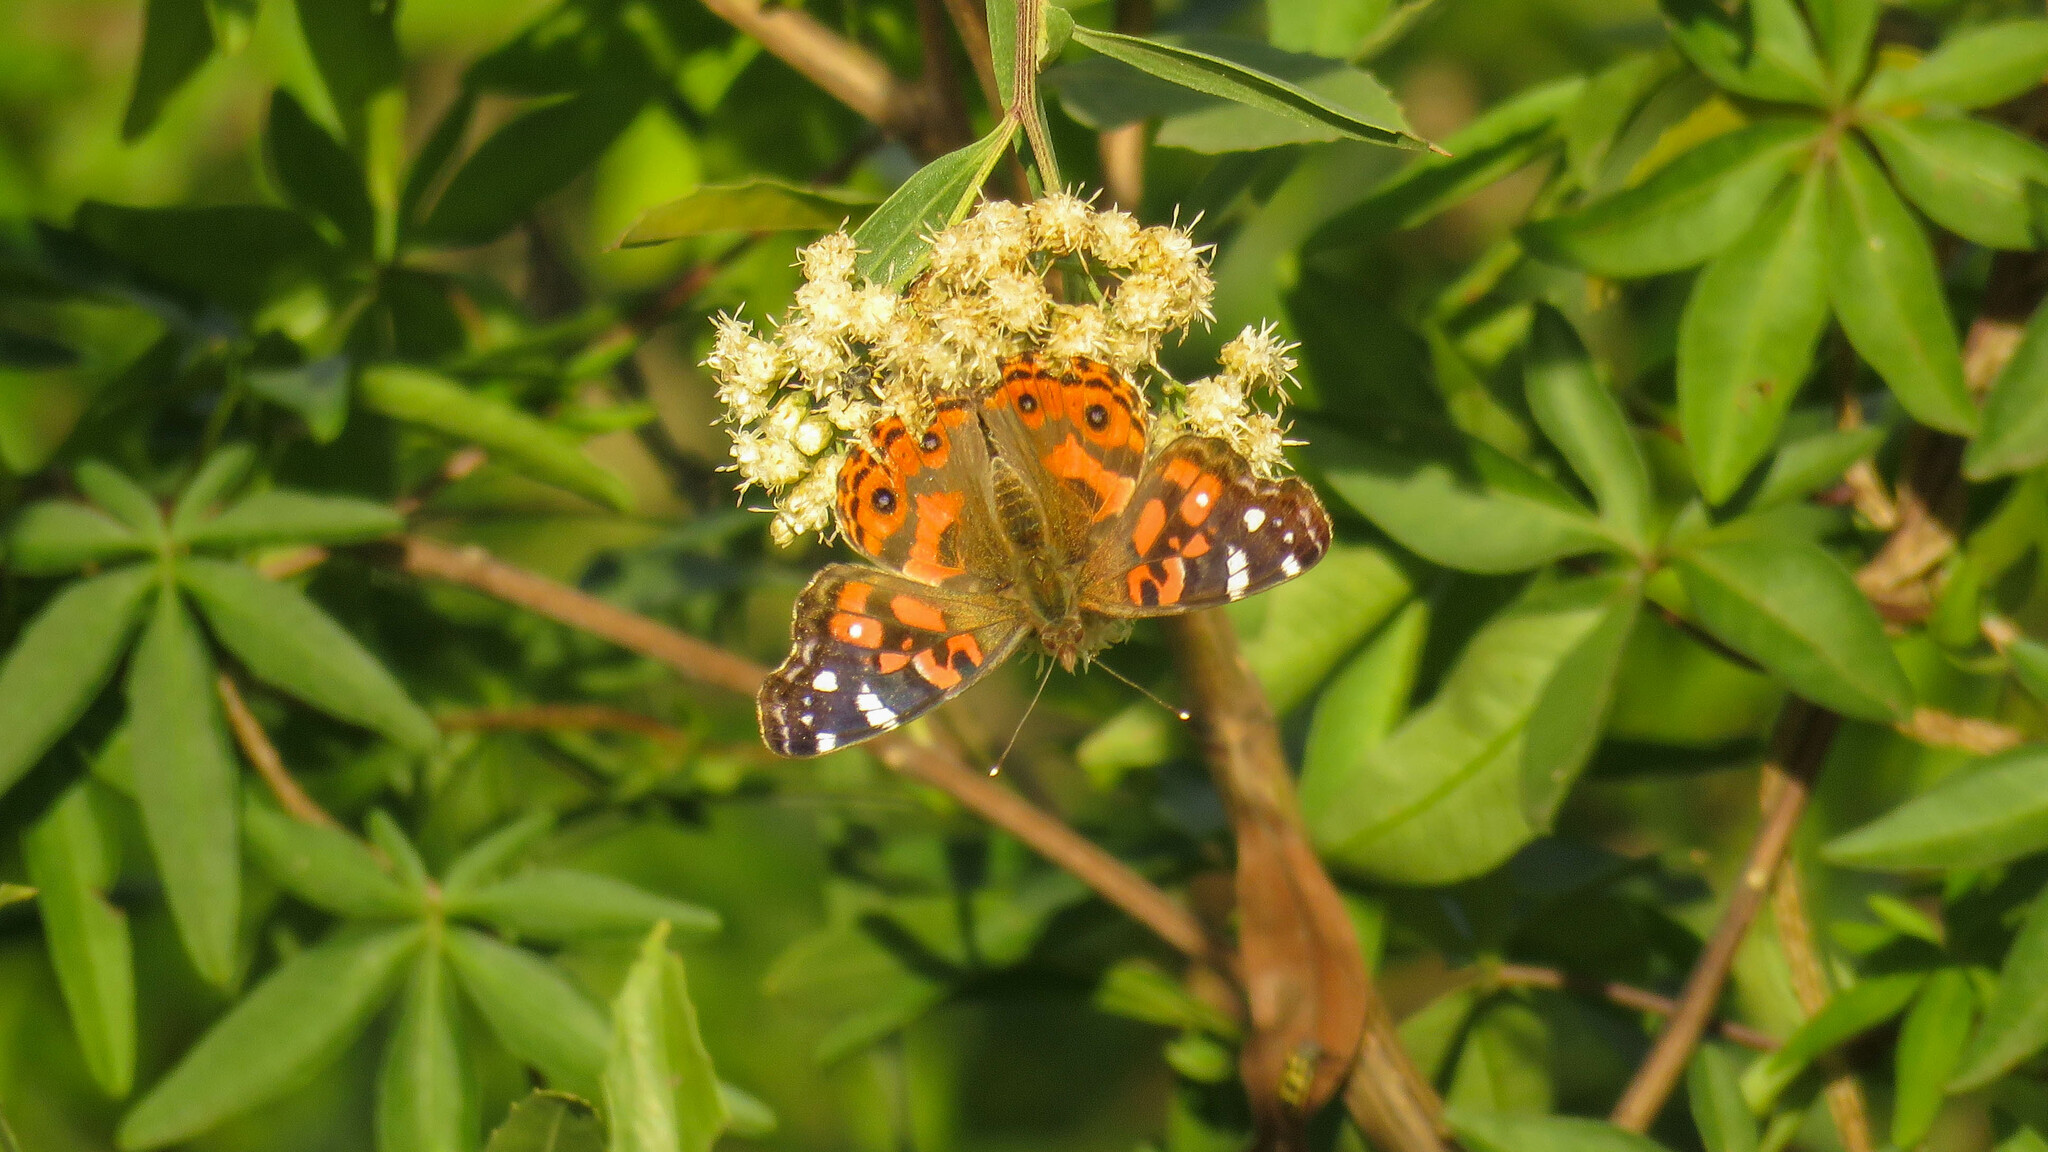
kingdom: Animalia
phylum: Arthropoda
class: Insecta
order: Lepidoptera
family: Nymphalidae
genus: Vanessa
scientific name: Vanessa braziliensis
